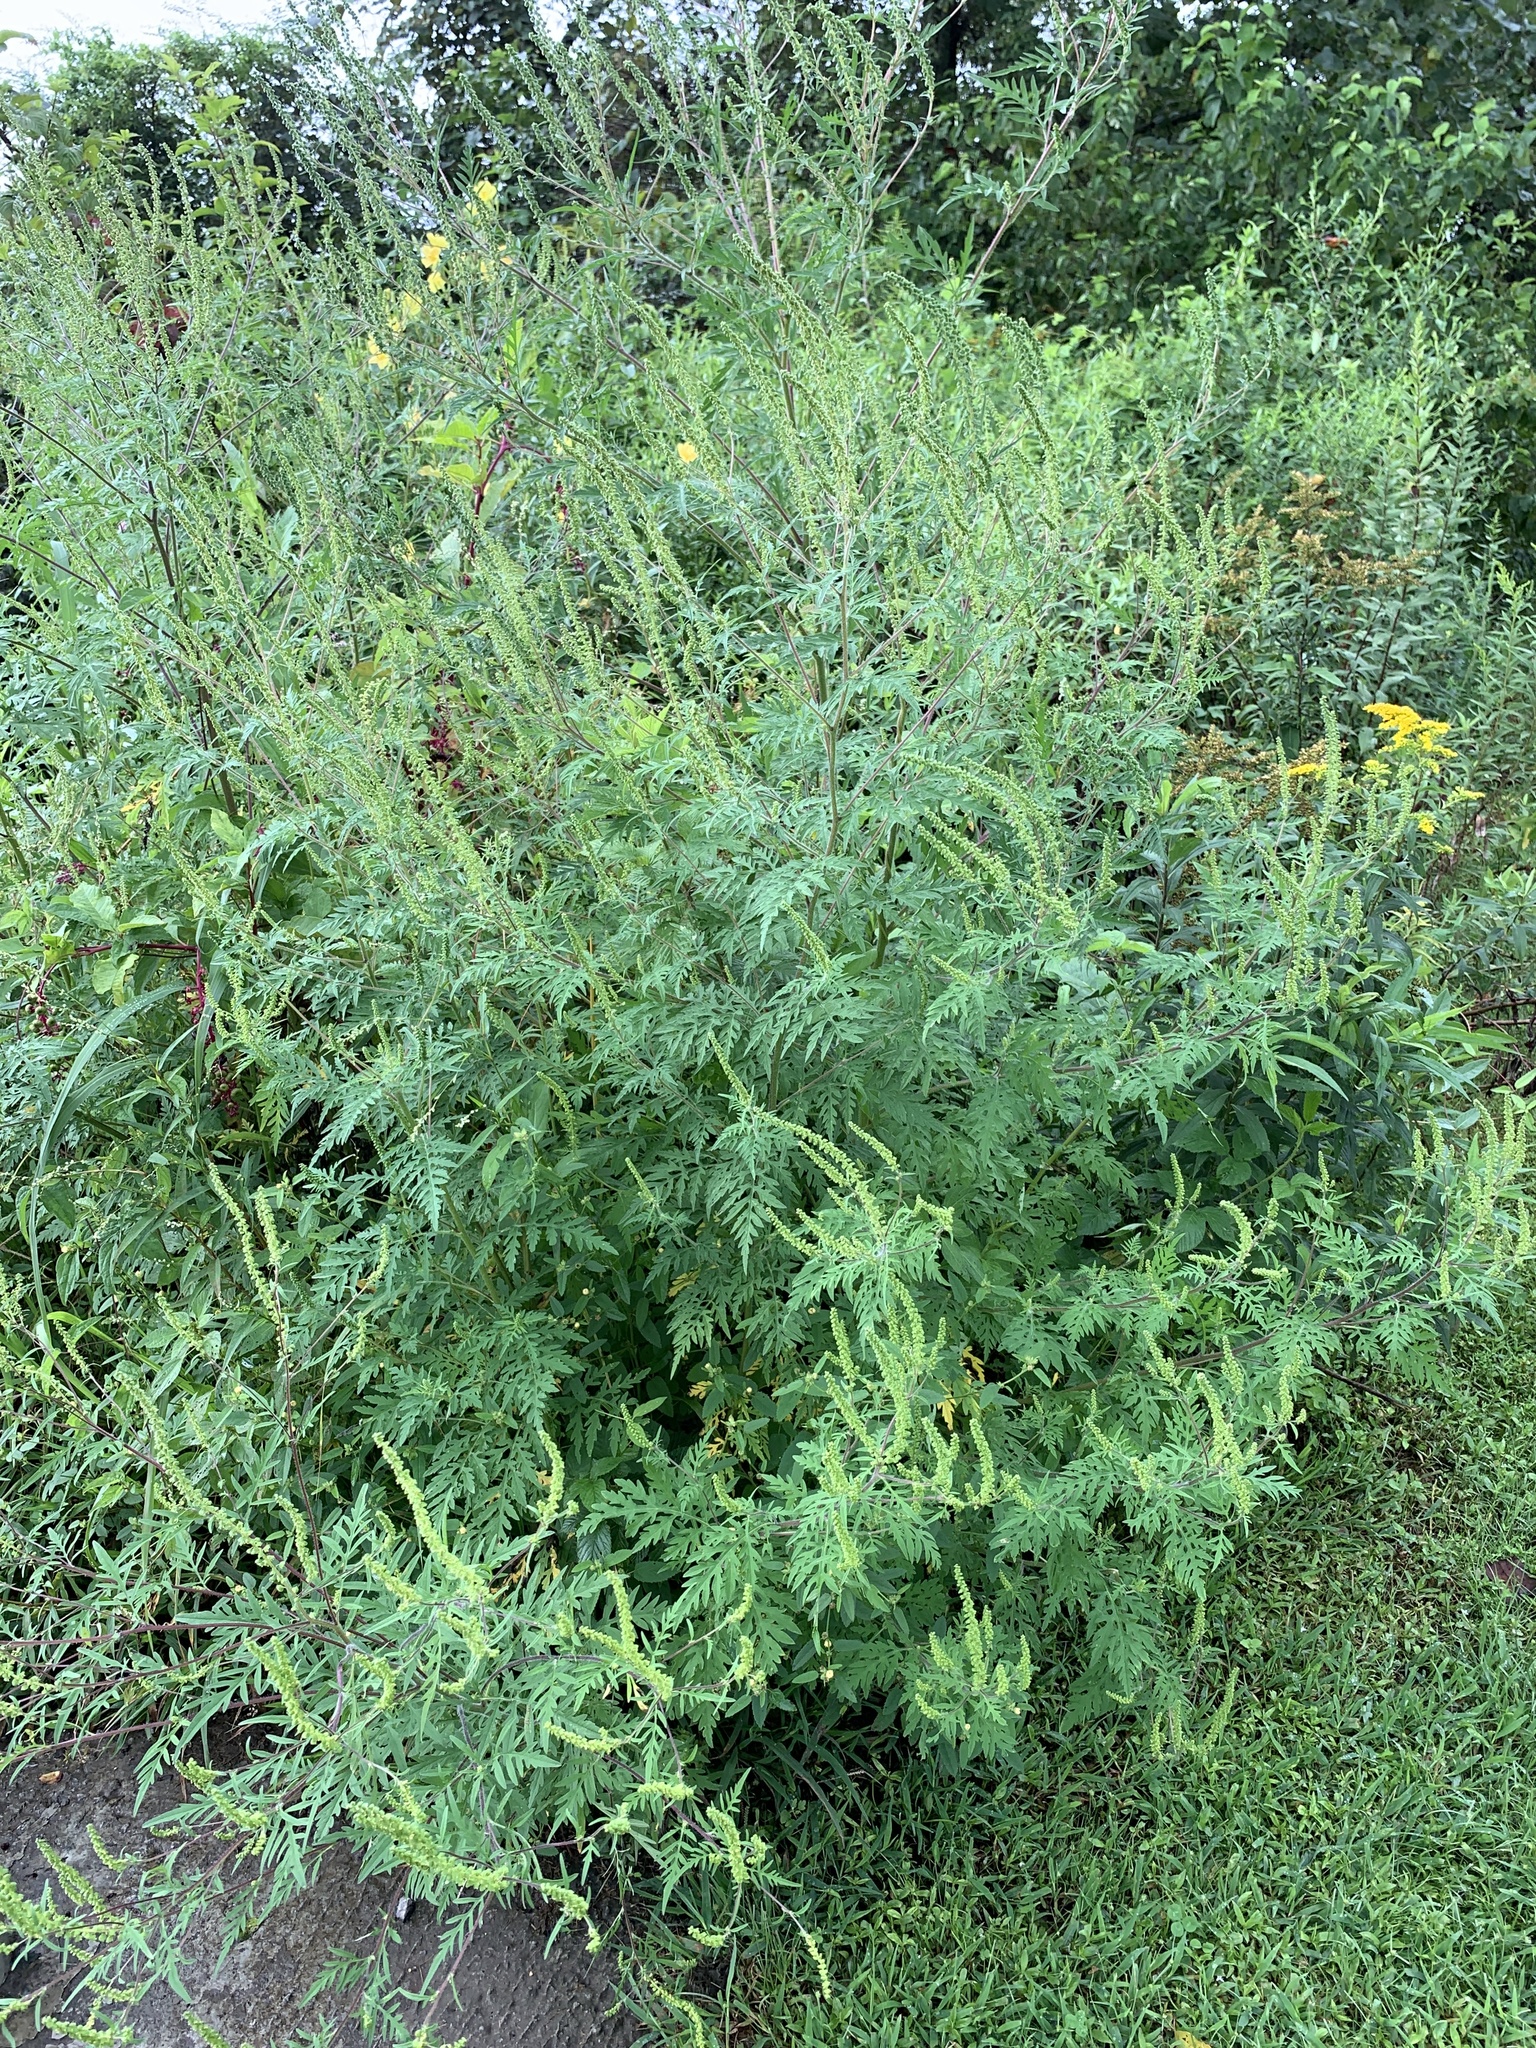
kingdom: Plantae
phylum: Tracheophyta
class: Magnoliopsida
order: Asterales
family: Asteraceae
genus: Ambrosia
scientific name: Ambrosia artemisiifolia
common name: Annual ragweed
